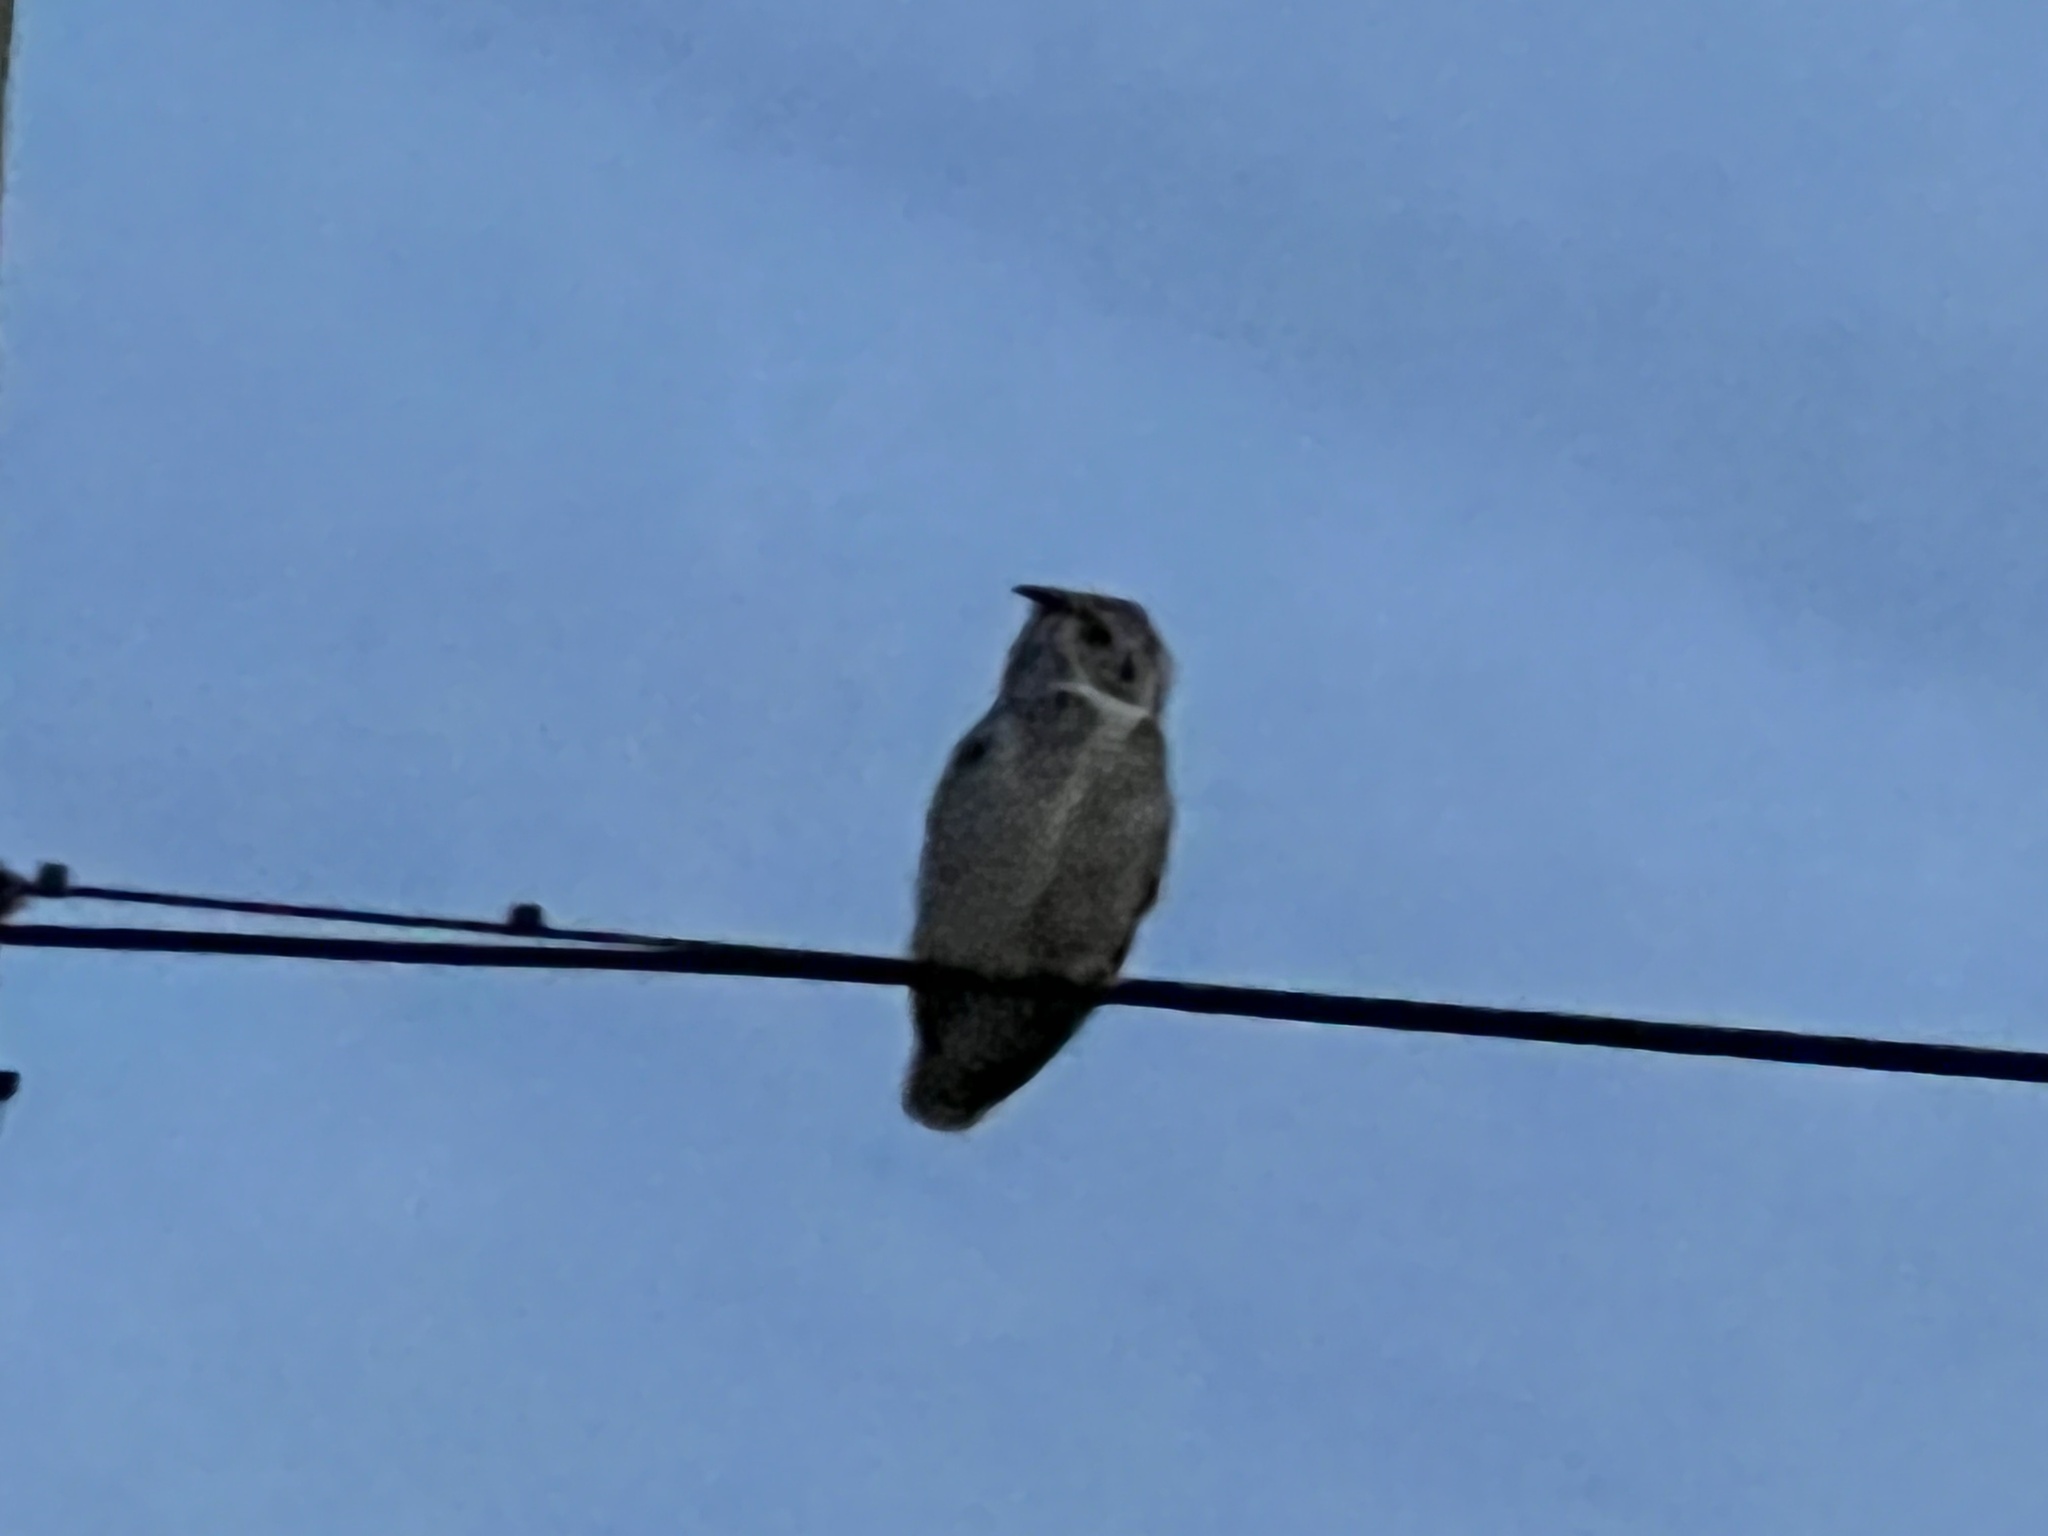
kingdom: Animalia
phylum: Chordata
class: Aves
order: Strigiformes
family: Strigidae
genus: Bubo
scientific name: Bubo virginianus
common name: Great horned owl
